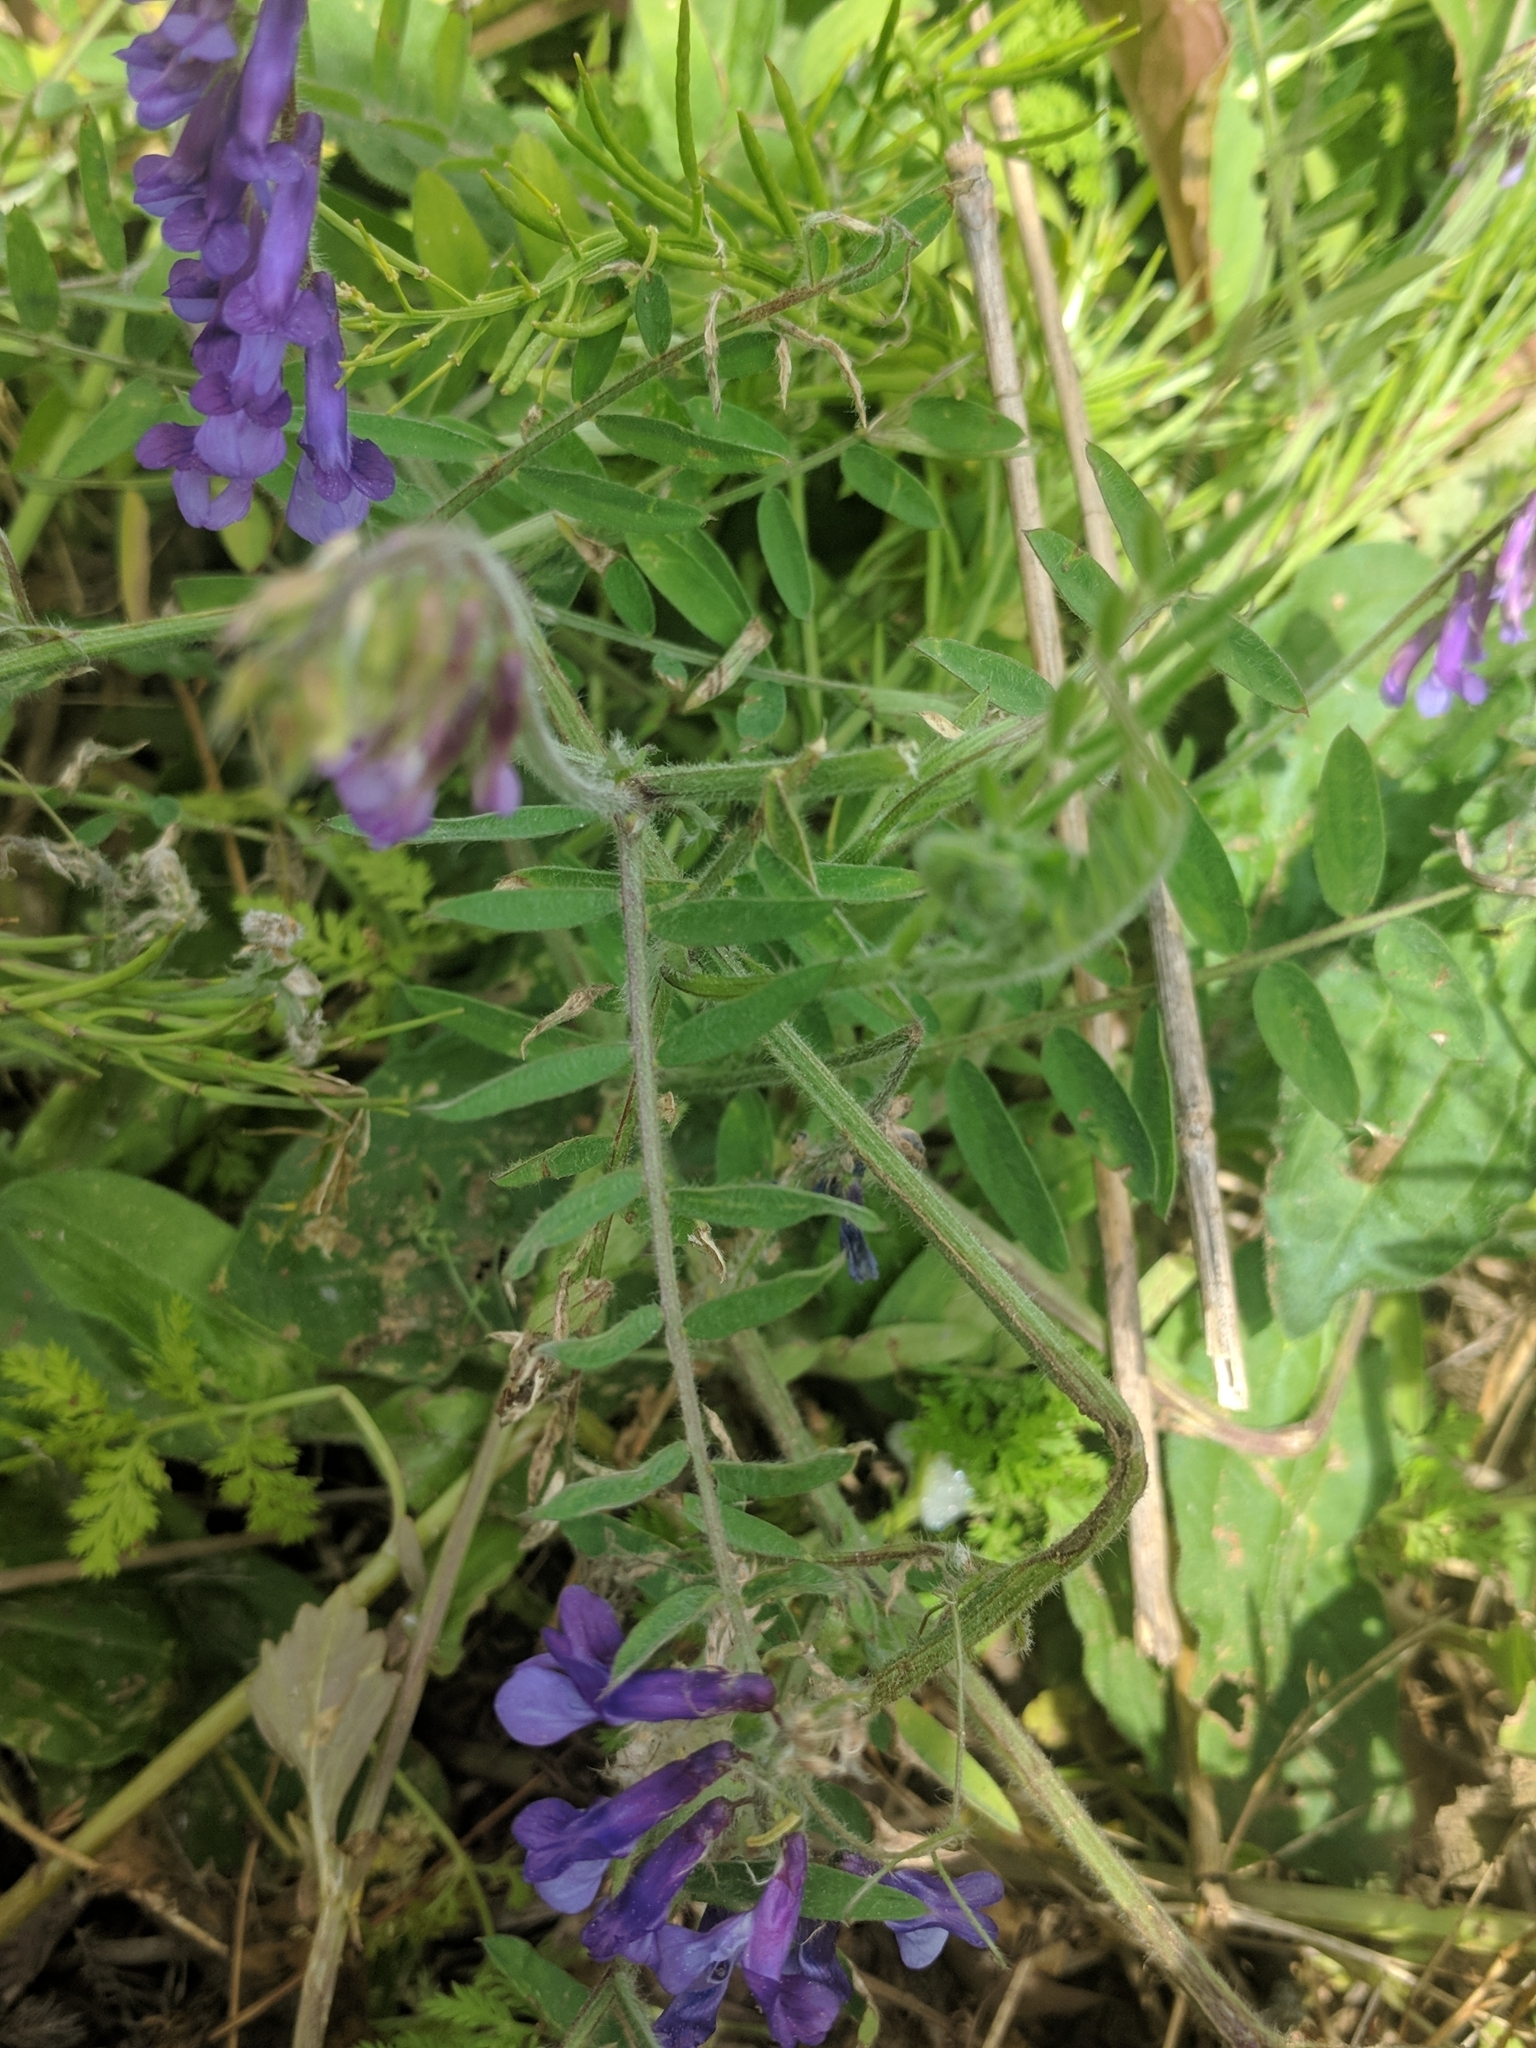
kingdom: Plantae
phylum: Tracheophyta
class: Magnoliopsida
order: Fabales
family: Fabaceae
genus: Vicia
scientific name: Vicia villosa
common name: Fodder vetch
